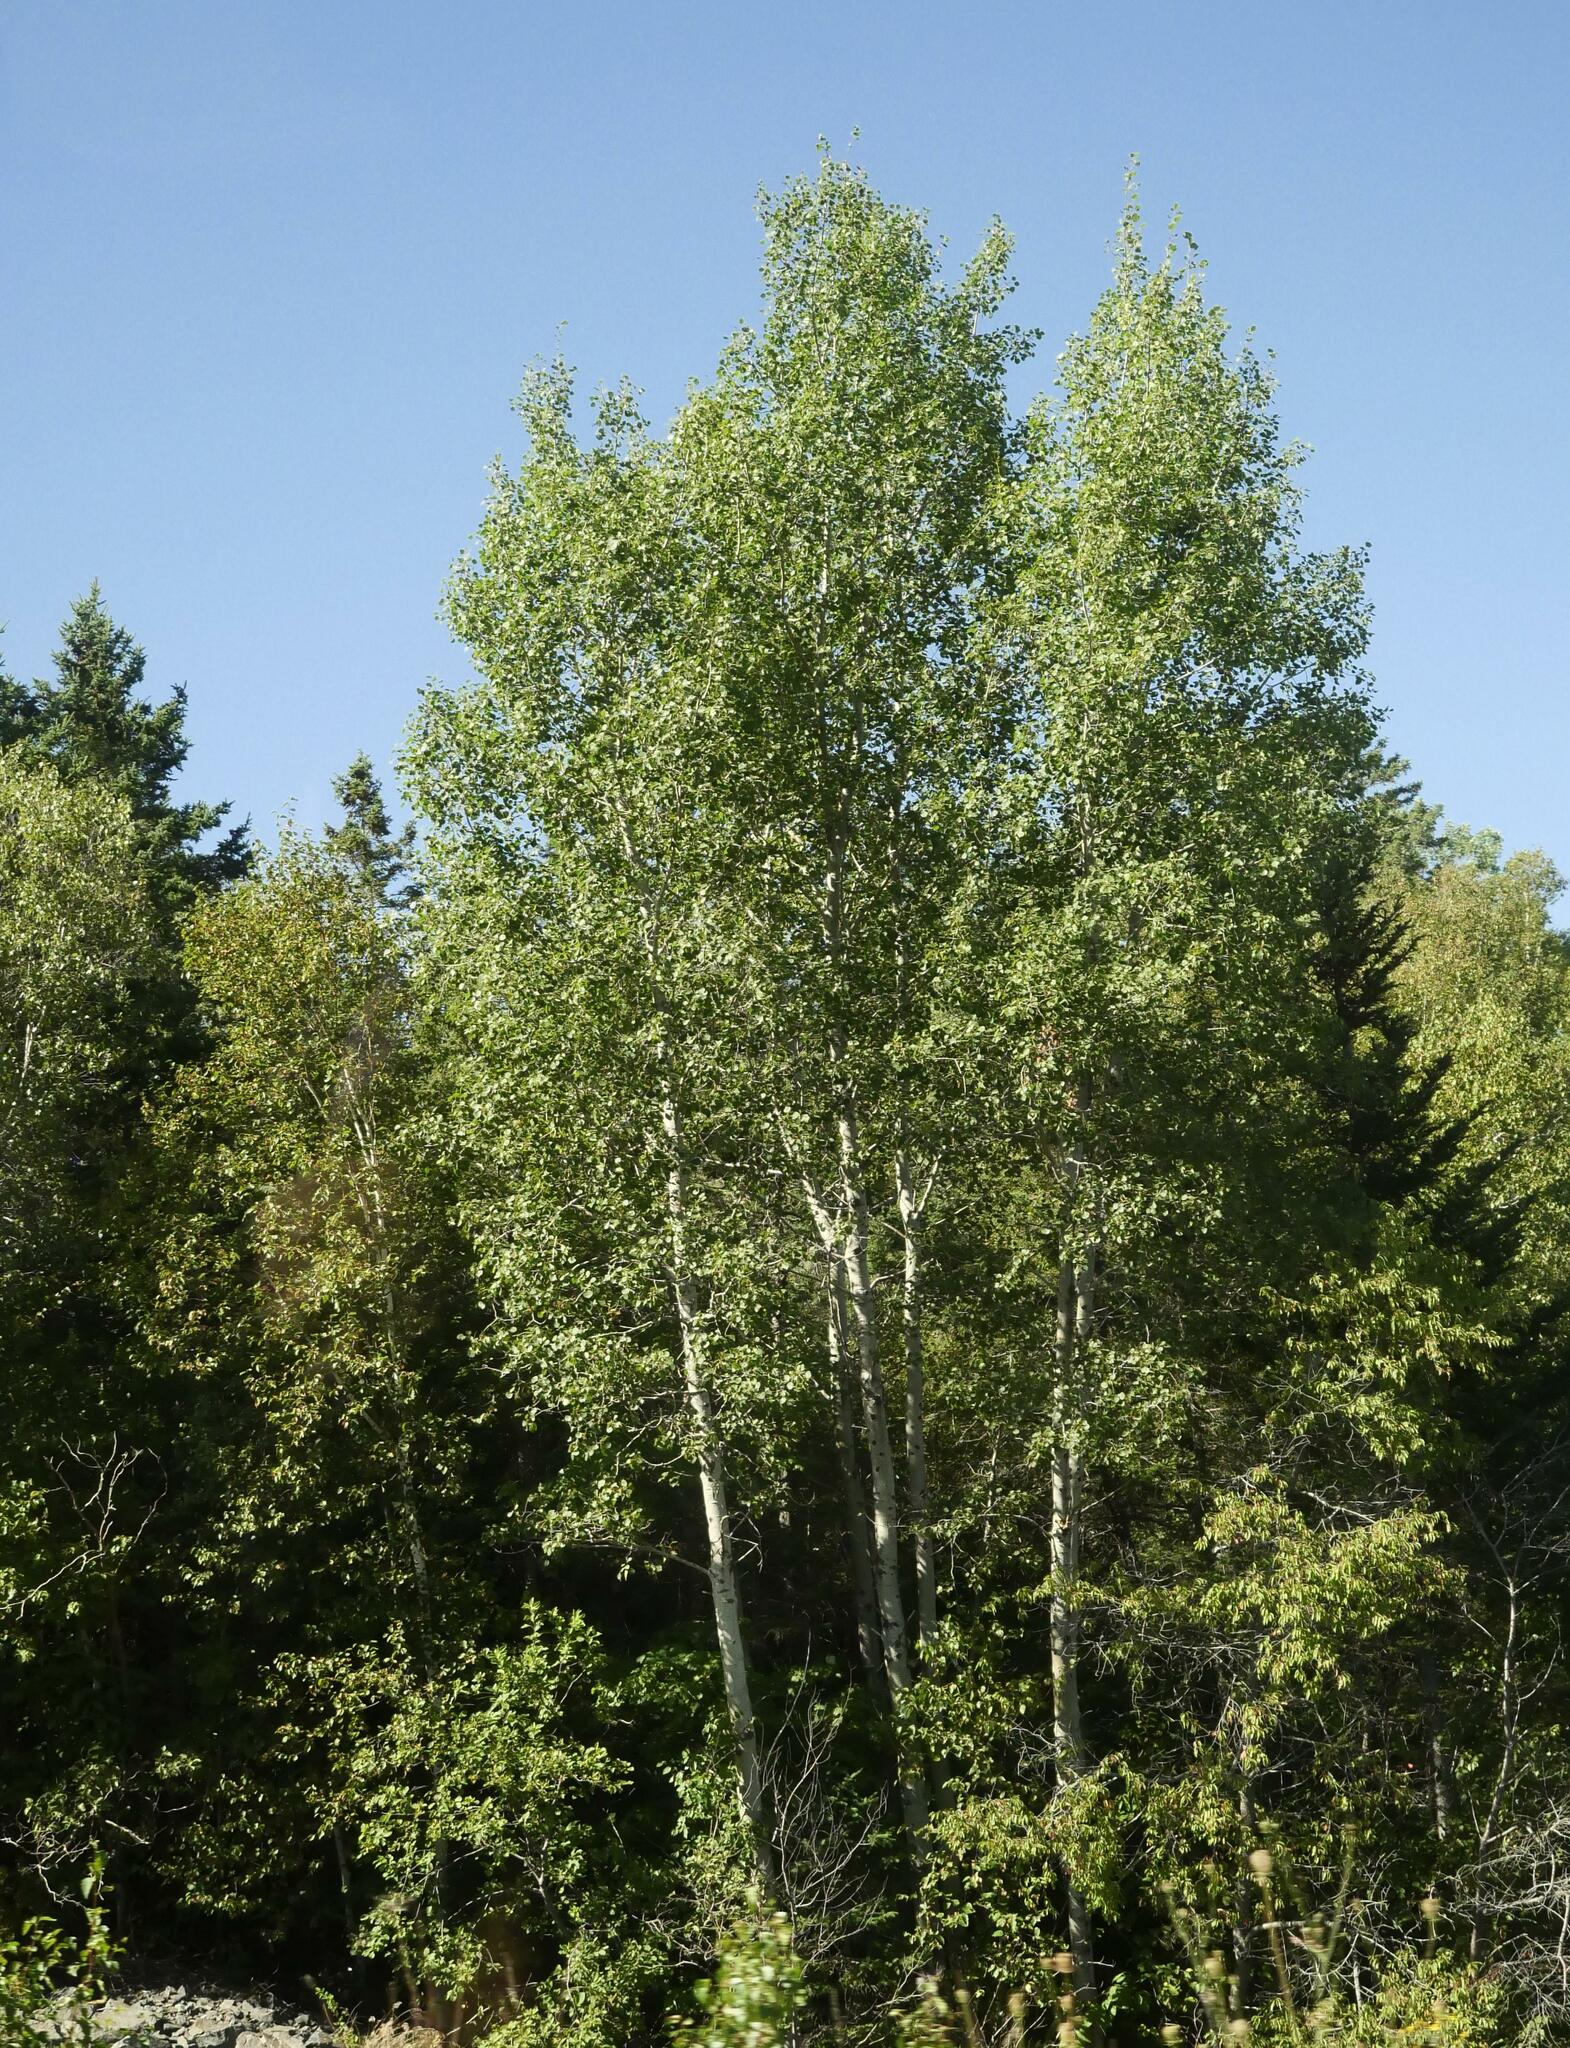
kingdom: Plantae
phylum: Tracheophyta
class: Magnoliopsida
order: Malpighiales
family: Salicaceae
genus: Populus
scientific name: Populus tremuloides
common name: Quaking aspen
